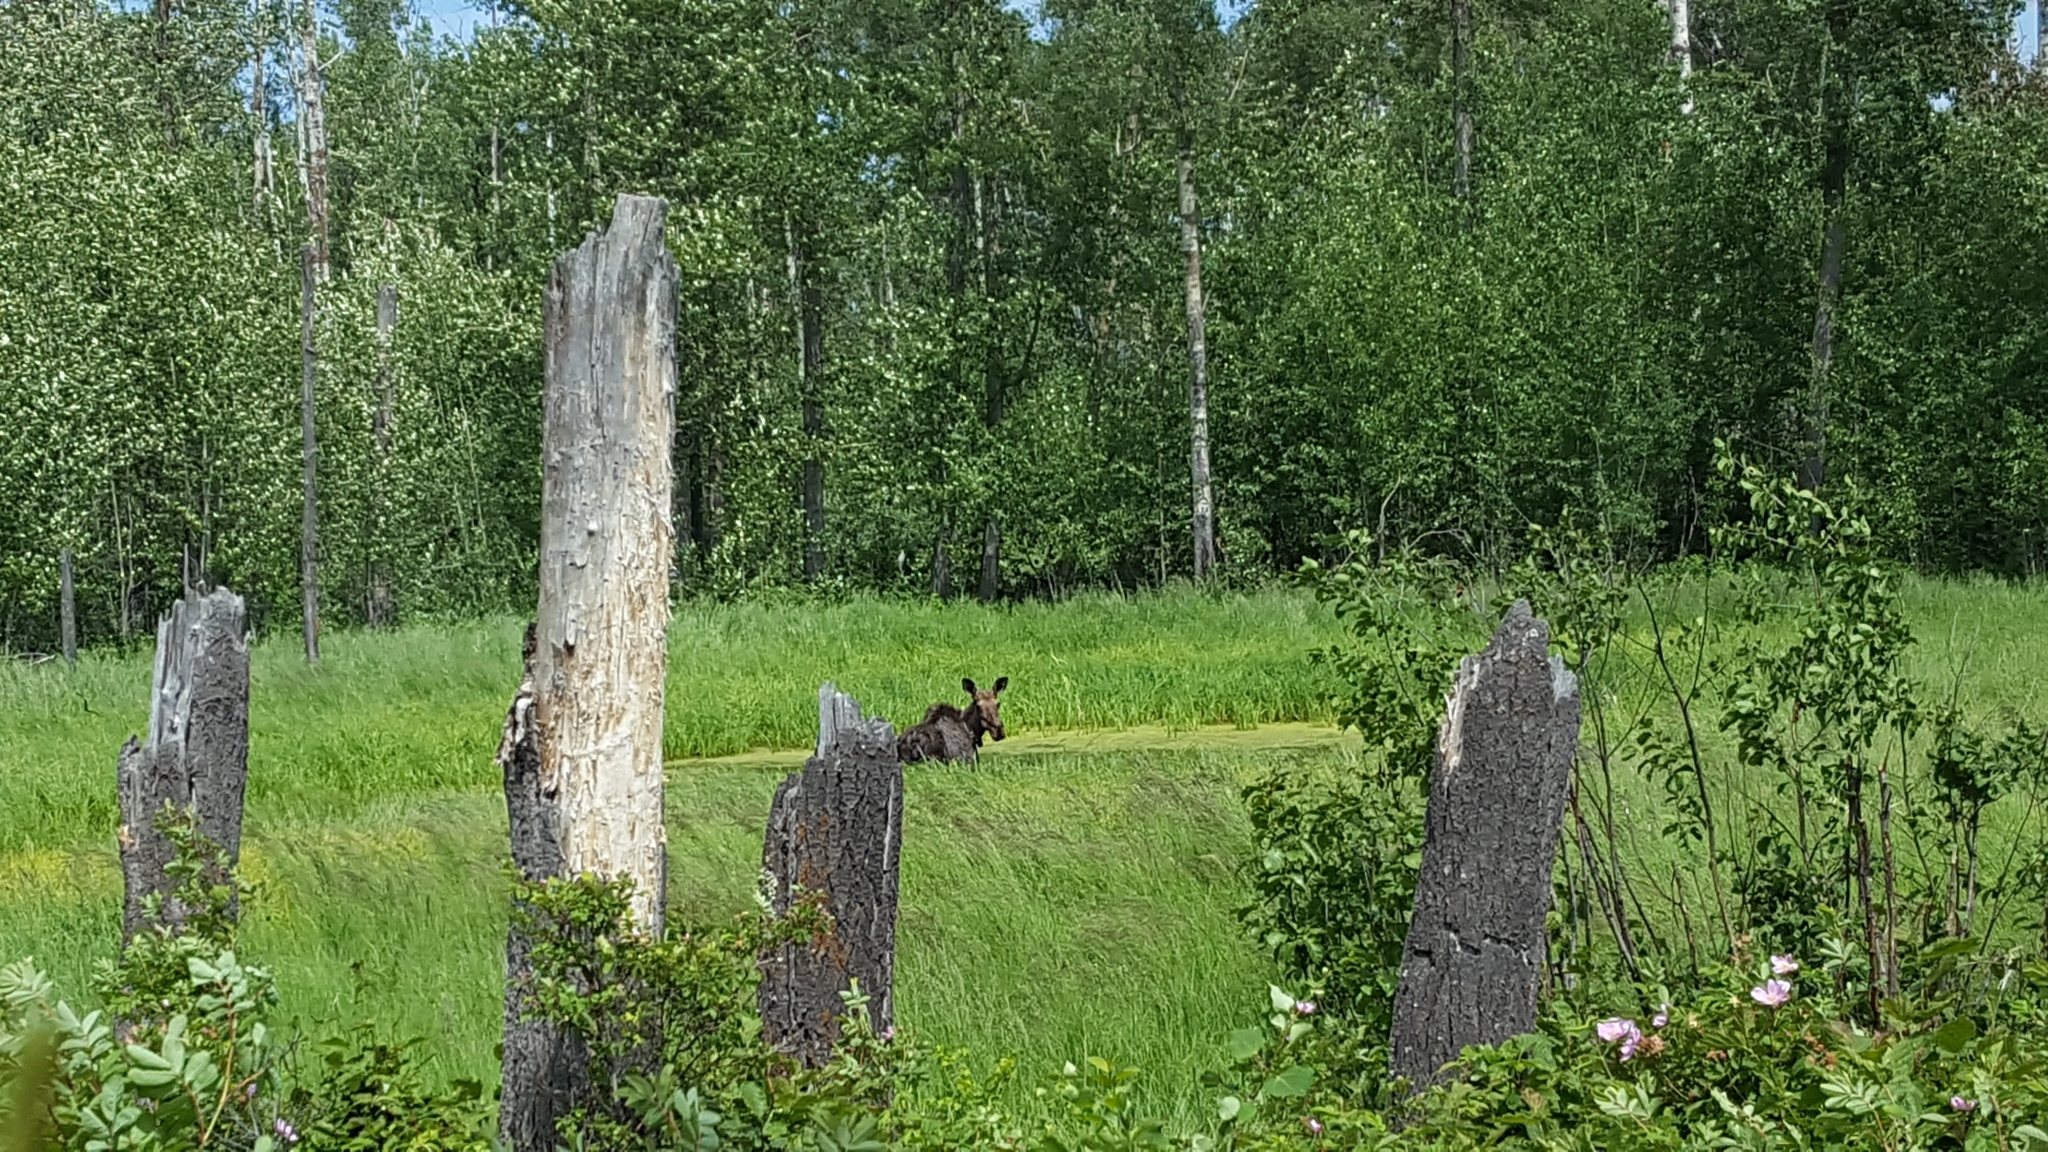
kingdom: Animalia
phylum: Chordata
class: Mammalia
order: Artiodactyla
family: Cervidae
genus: Alces
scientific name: Alces alces
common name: Moose
